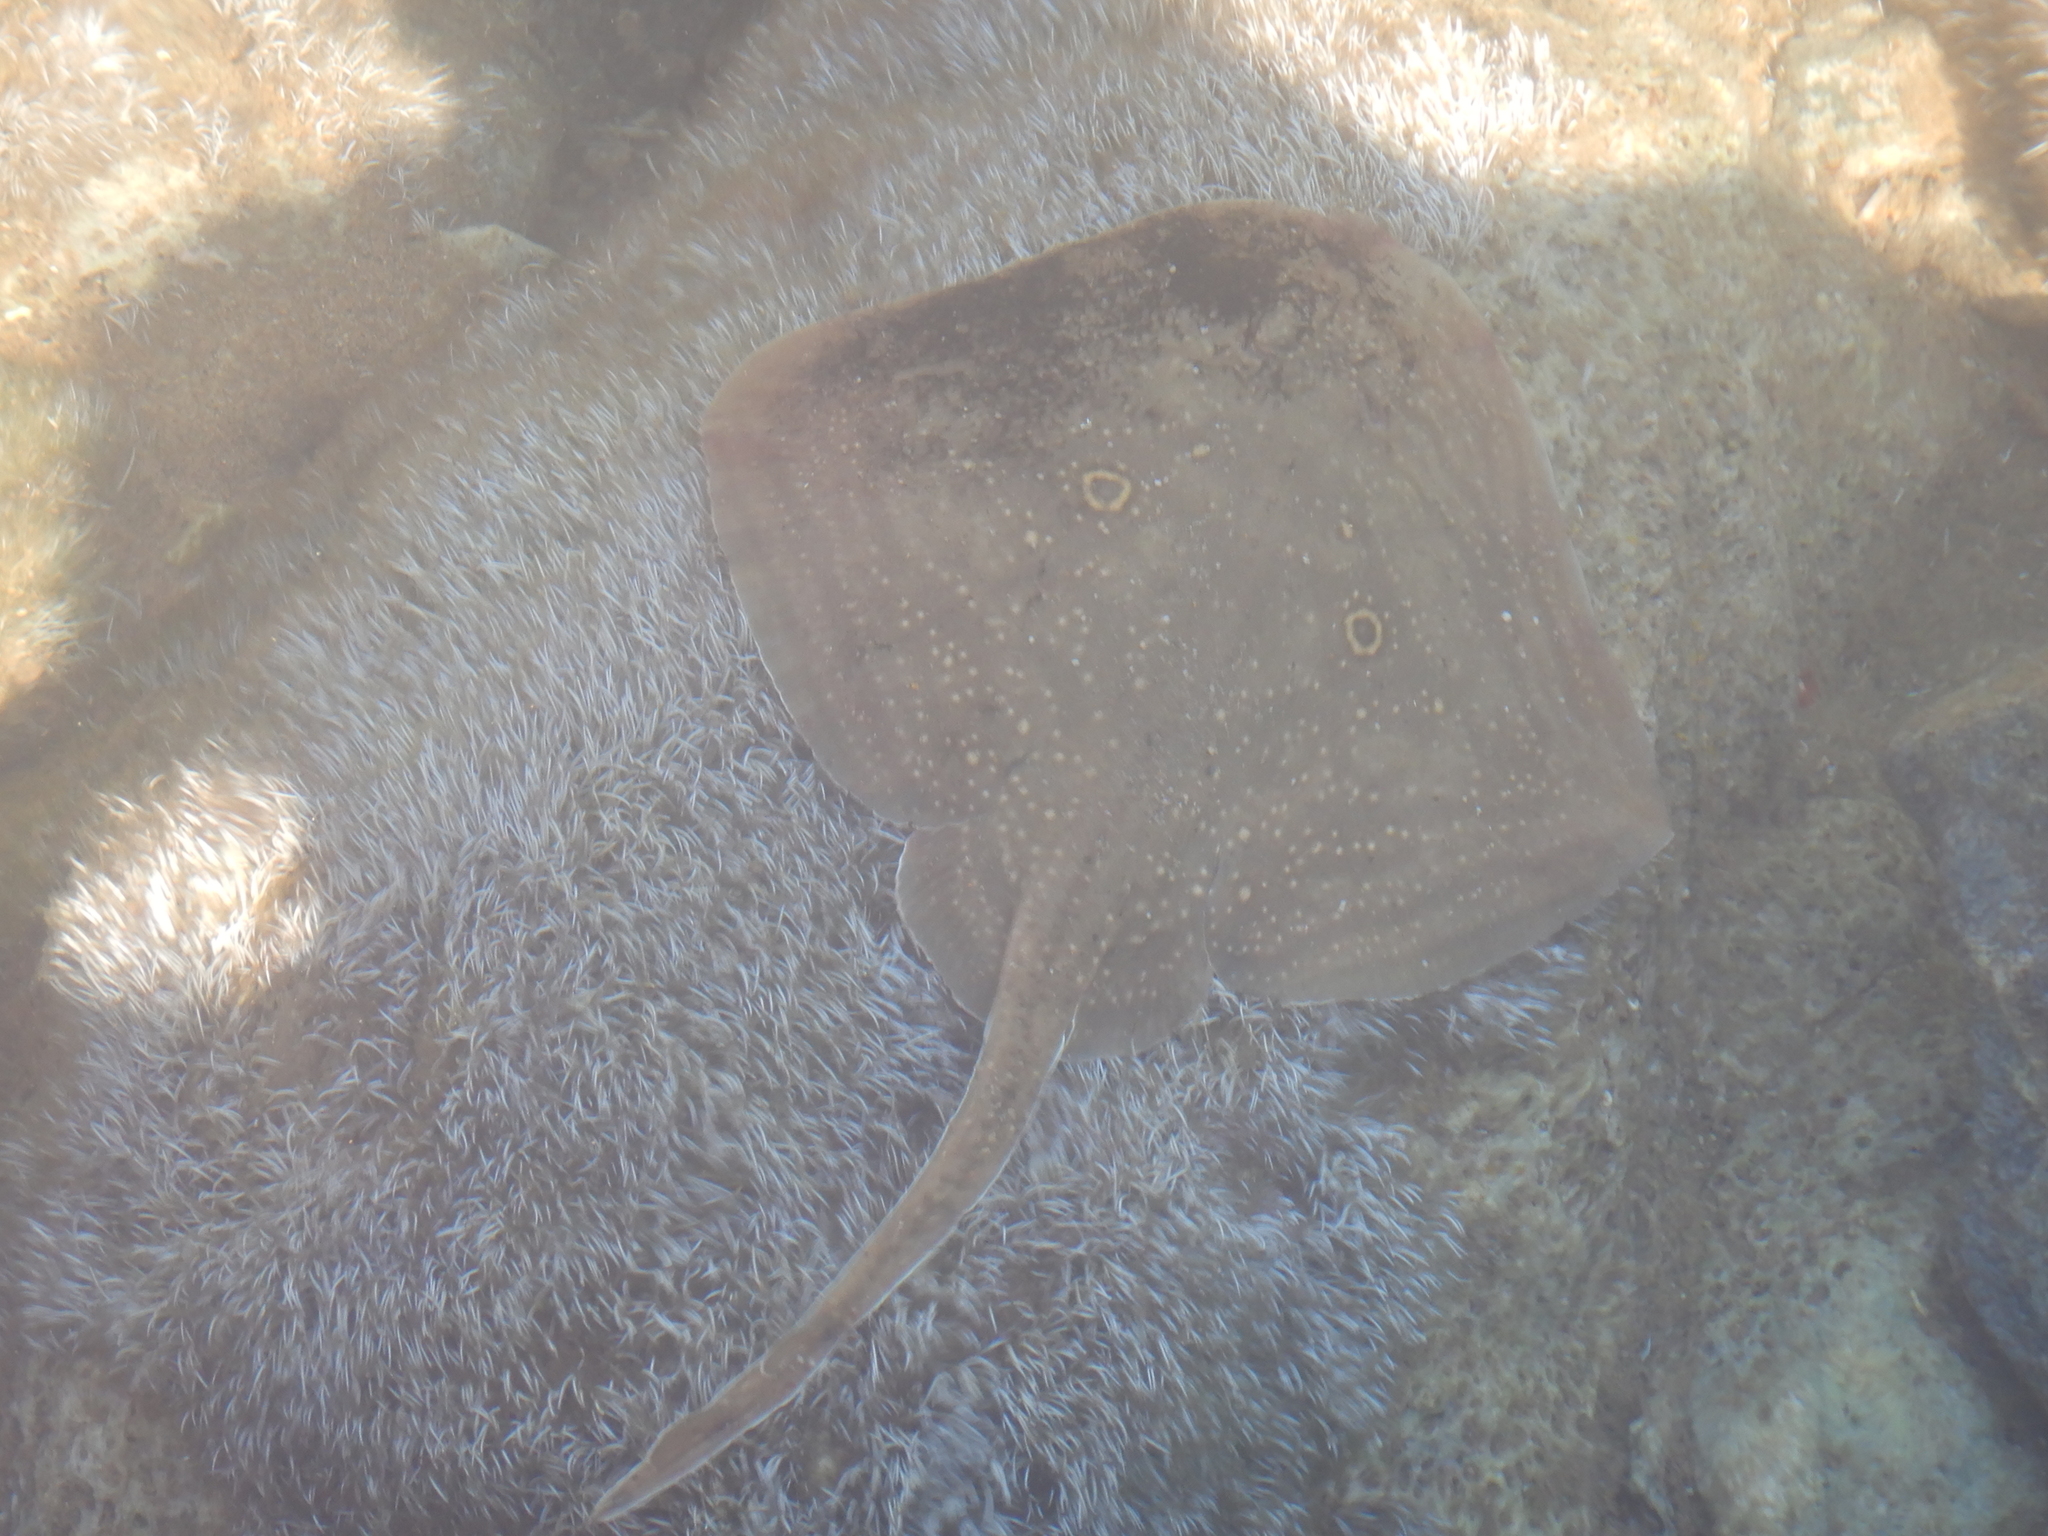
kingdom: Animalia
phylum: Chordata
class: Elasmobranchii
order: Rajiformes
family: Rajidae
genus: Raja
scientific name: Raja radula
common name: Rough ray
